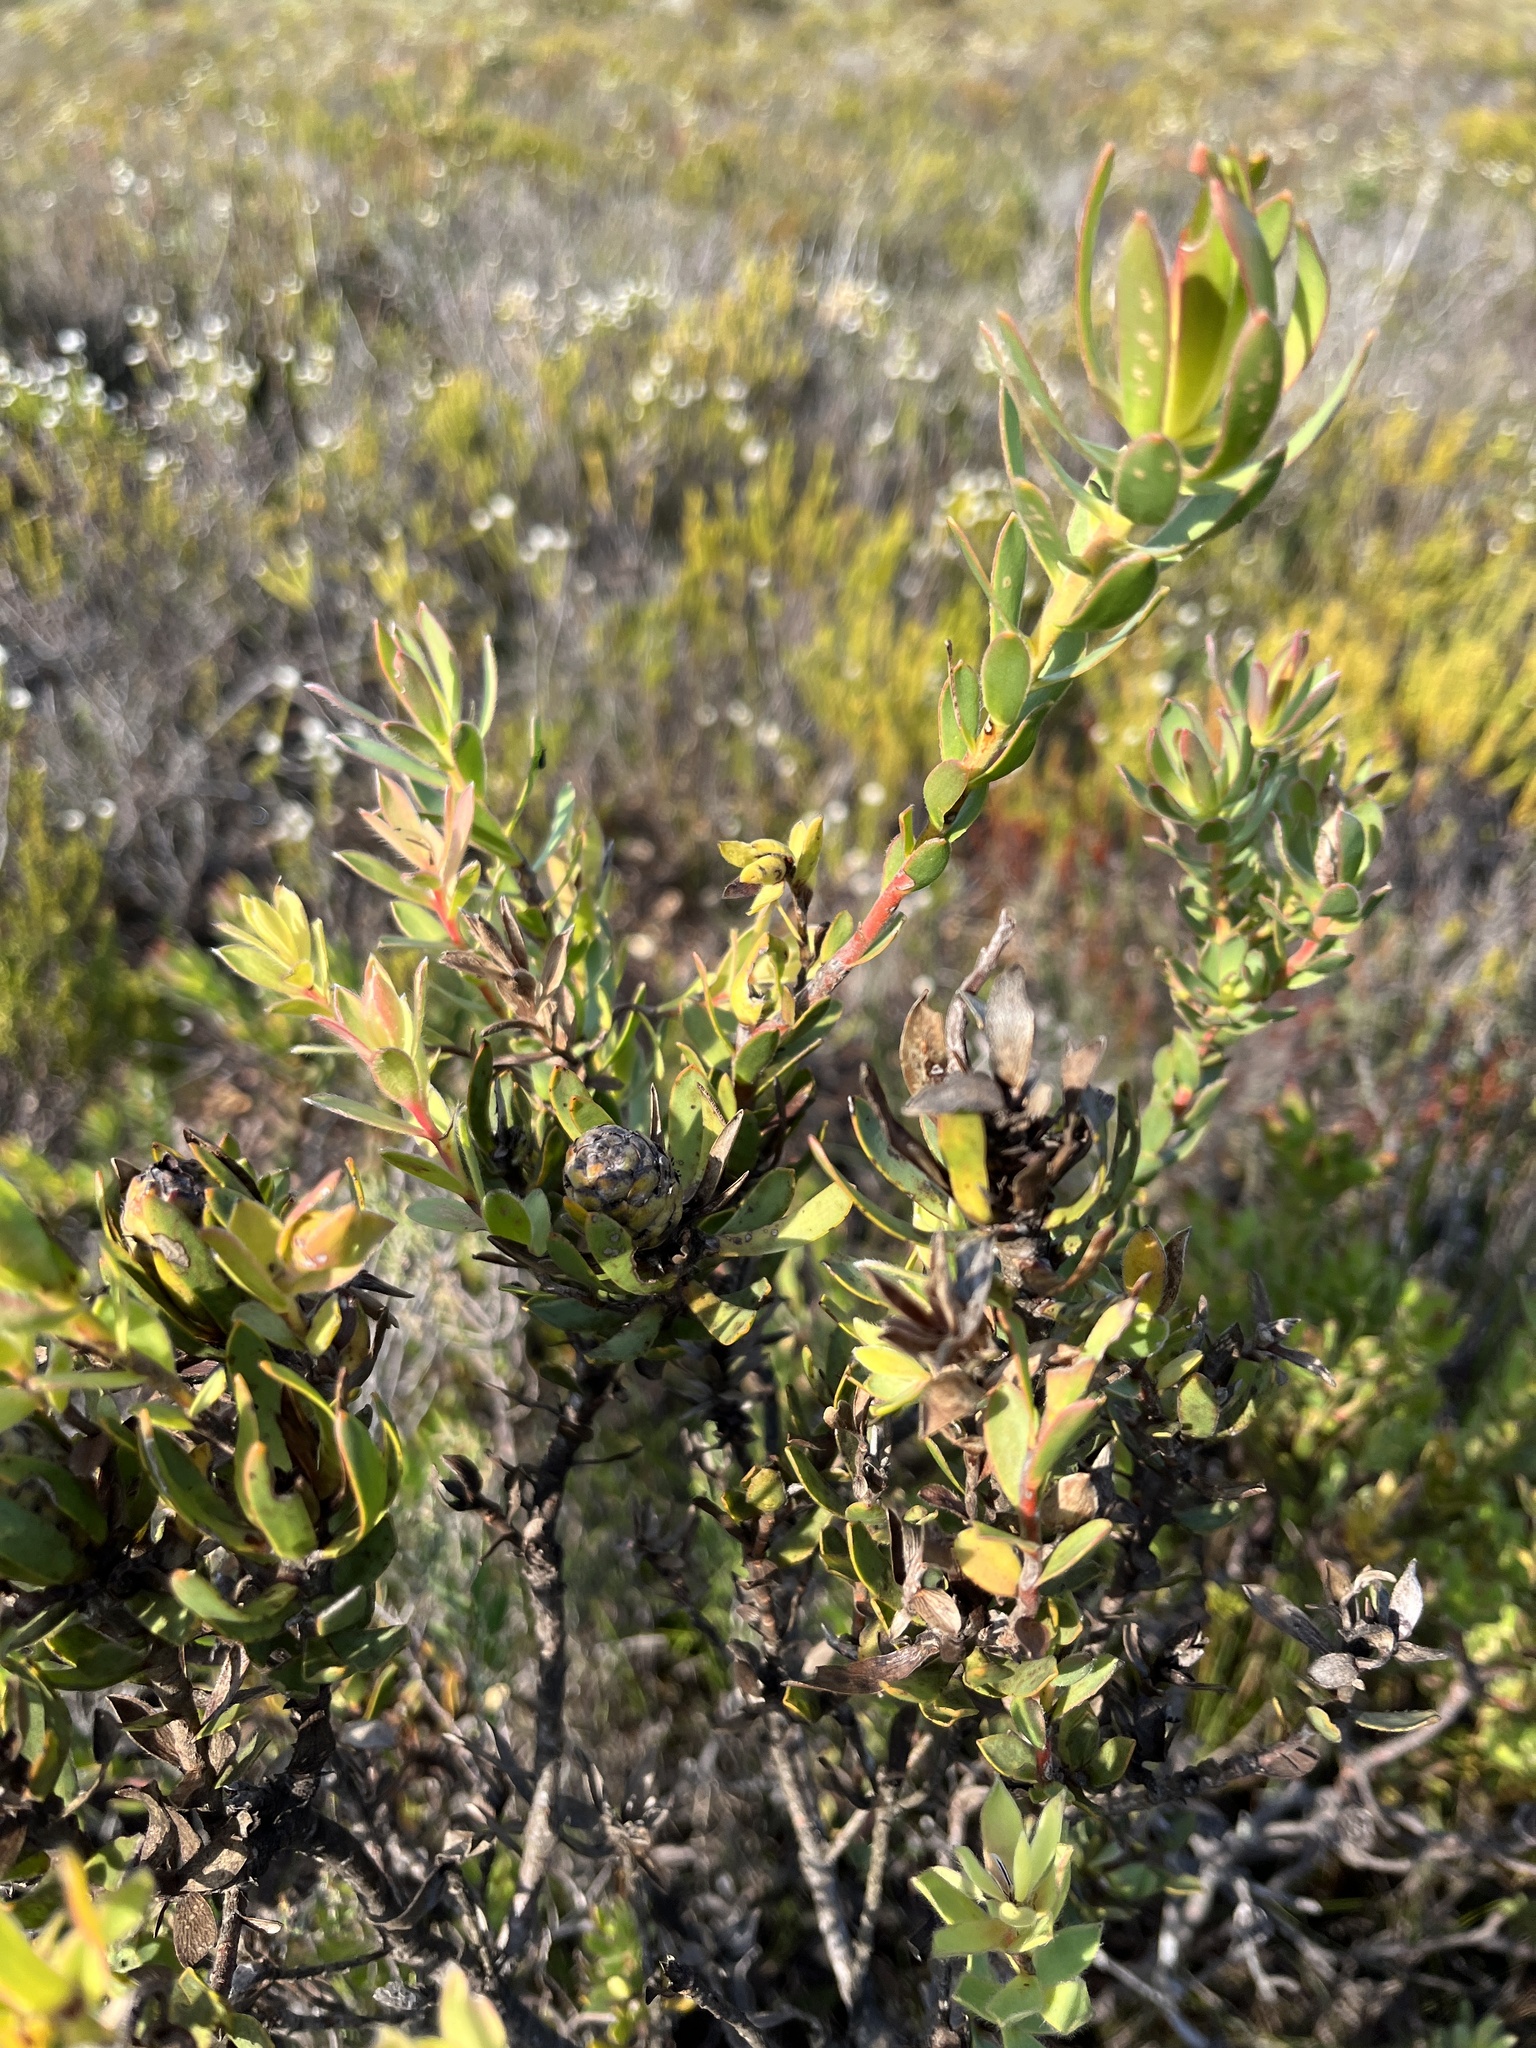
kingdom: Plantae
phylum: Tracheophyta
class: Magnoliopsida
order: Proteales
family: Proteaceae
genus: Leucadendron
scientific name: Leucadendron stelligerum
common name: Agulhas conebush
